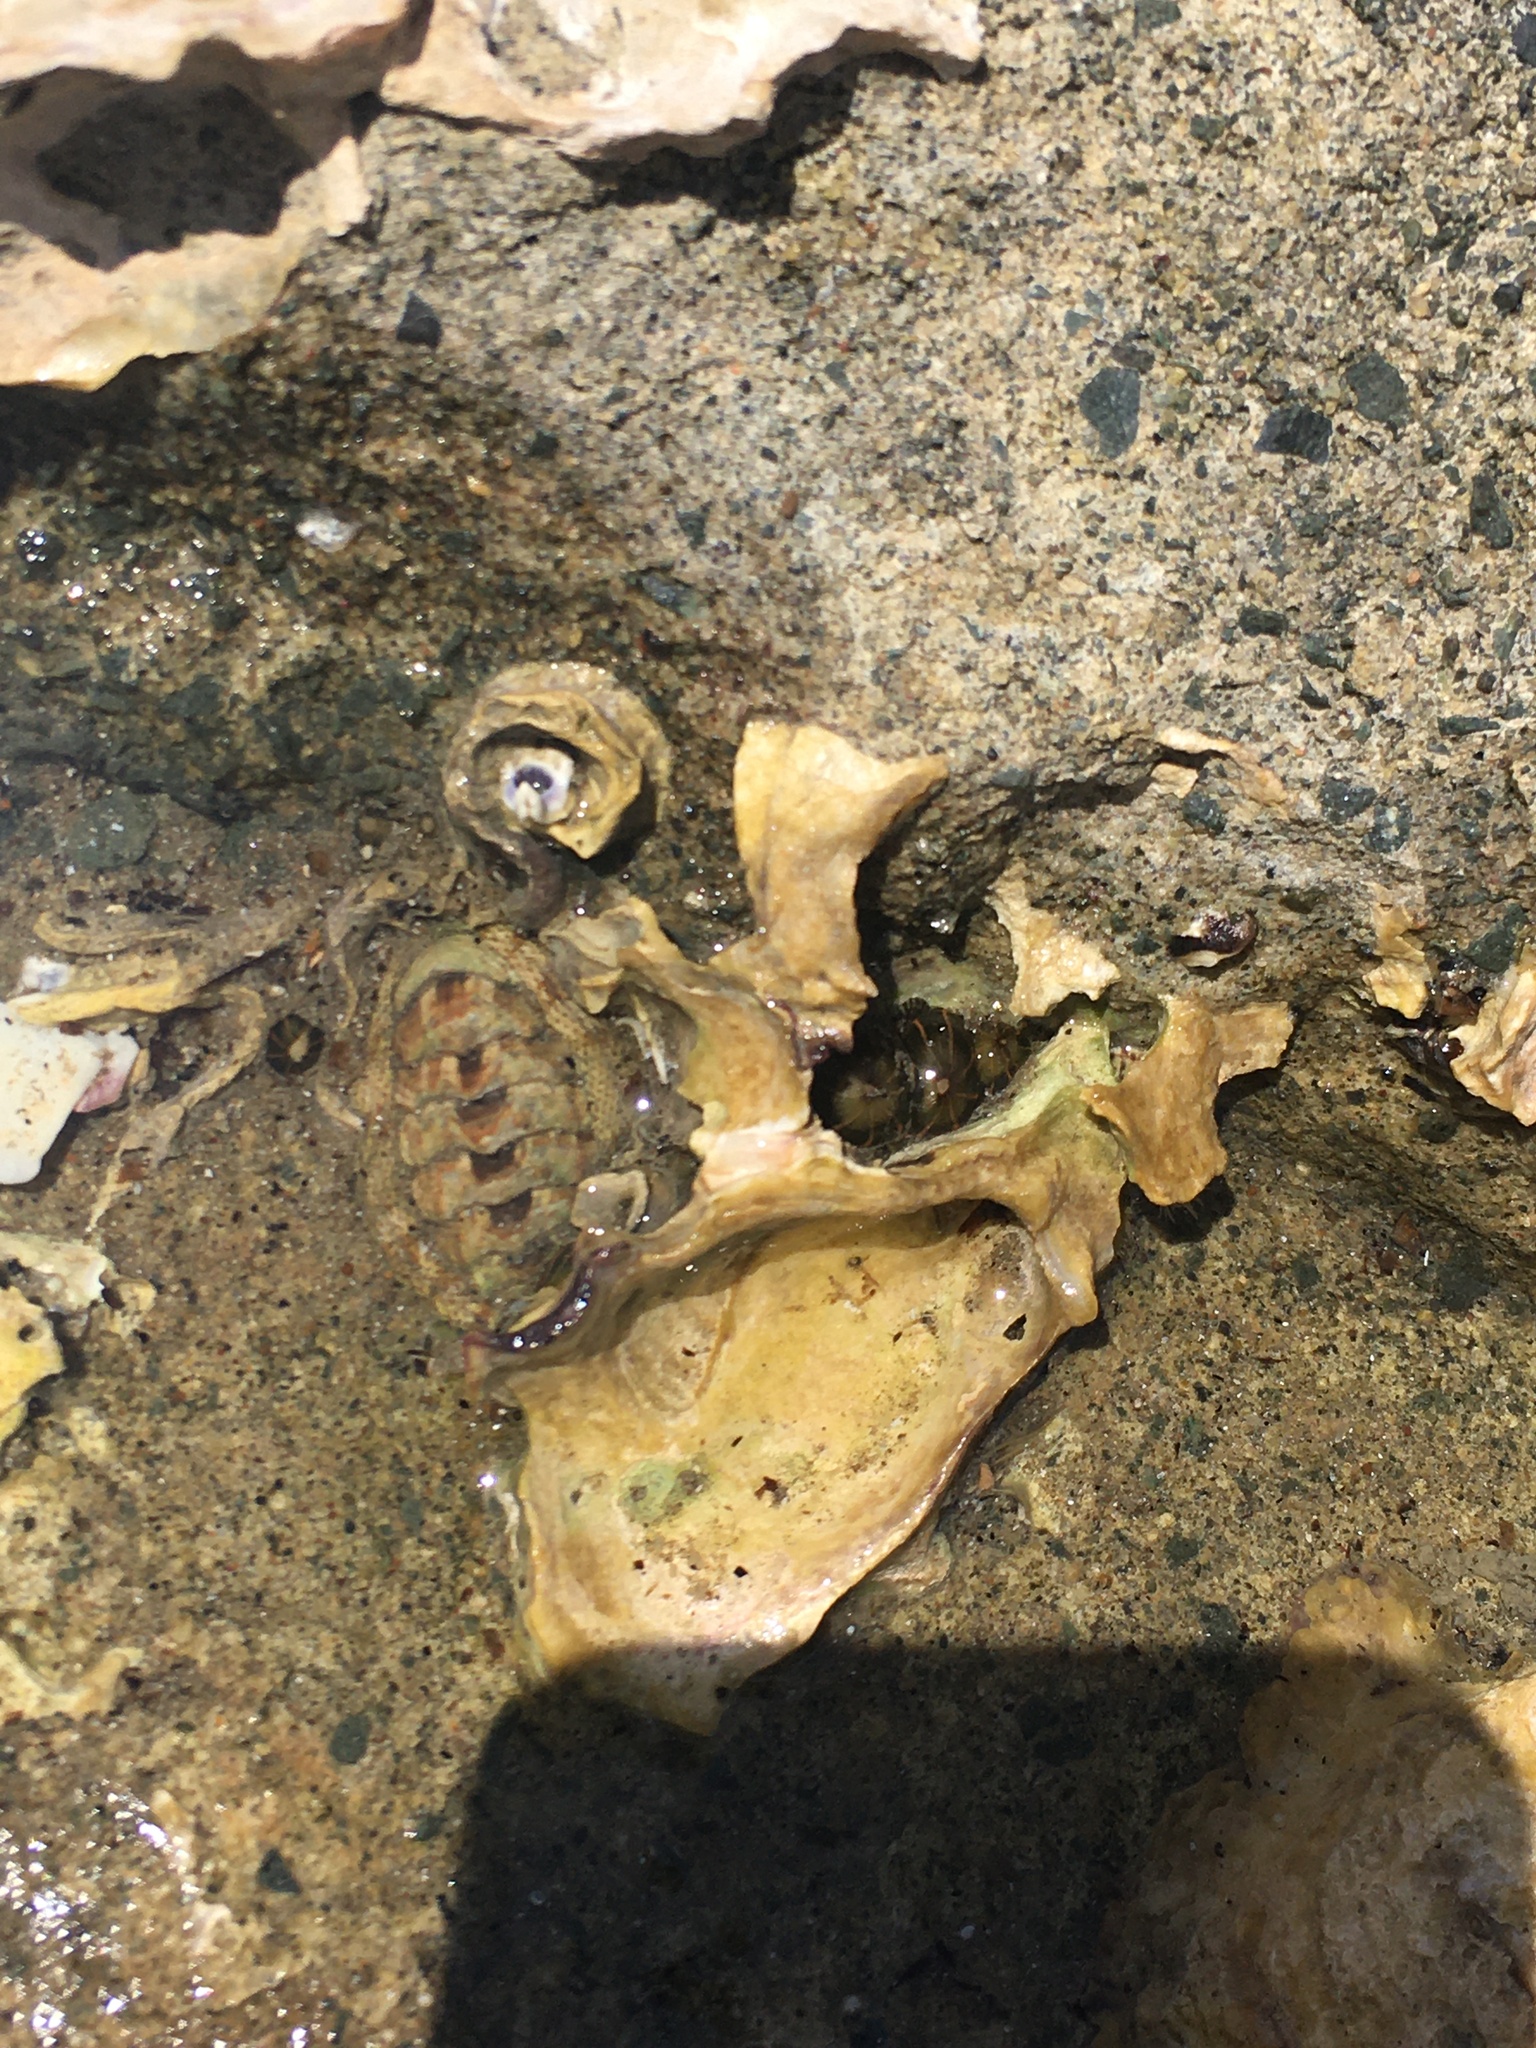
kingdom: Animalia
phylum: Mollusca
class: Polyplacophora
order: Chitonida
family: Chitonidae
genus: Sypharochiton
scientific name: Sypharochiton pelliserpentis
